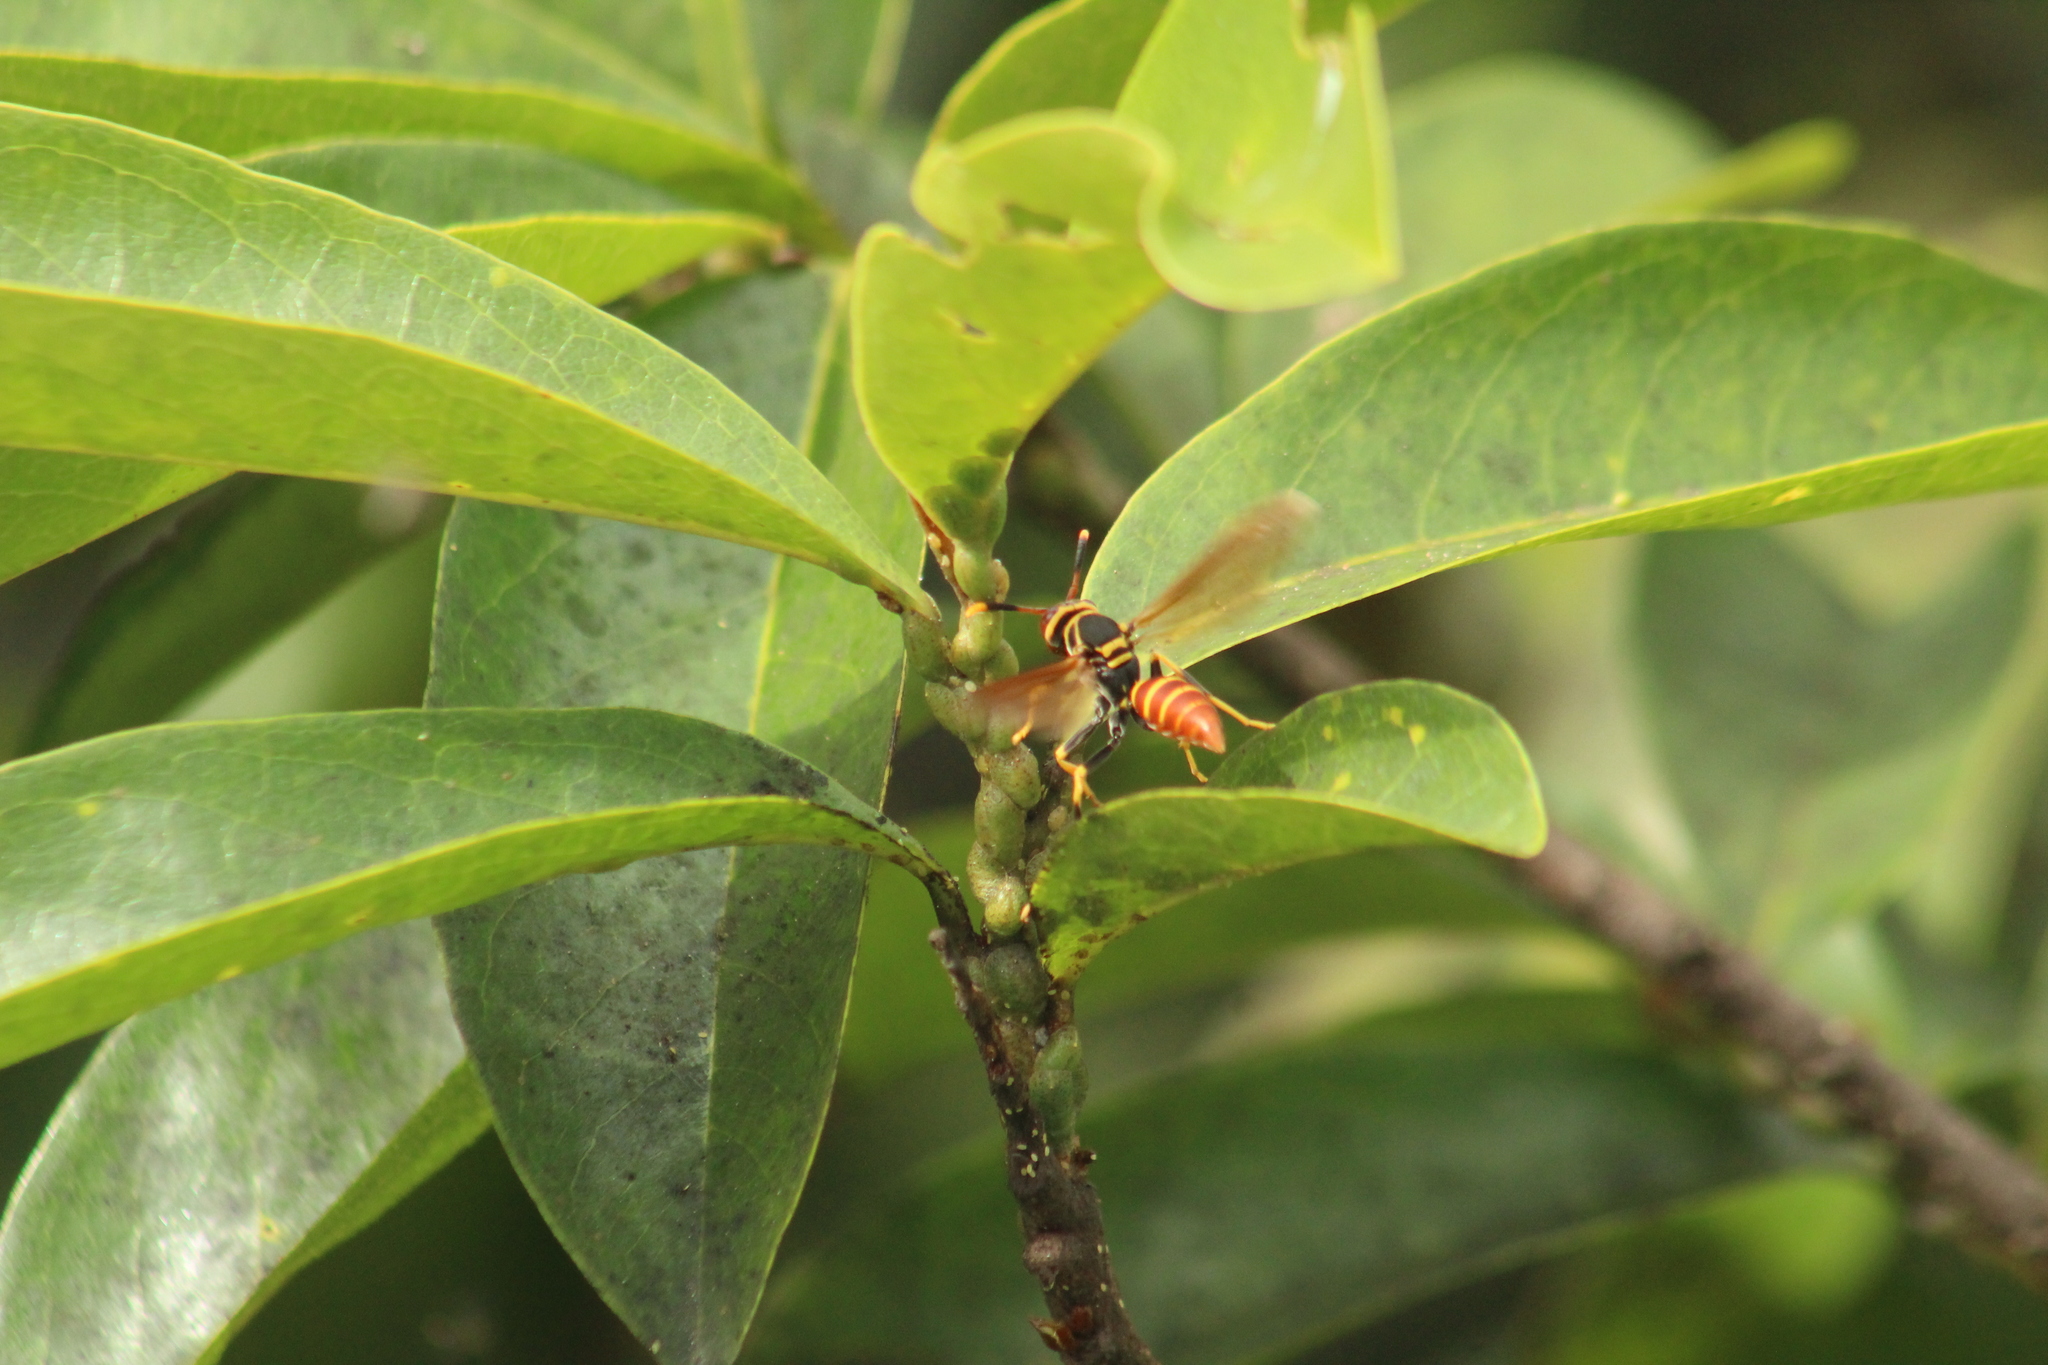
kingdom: Animalia
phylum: Arthropoda
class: Insecta
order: Hymenoptera
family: Eumenidae
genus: Polistes
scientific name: Polistes crinitus
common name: Jack spaniard
